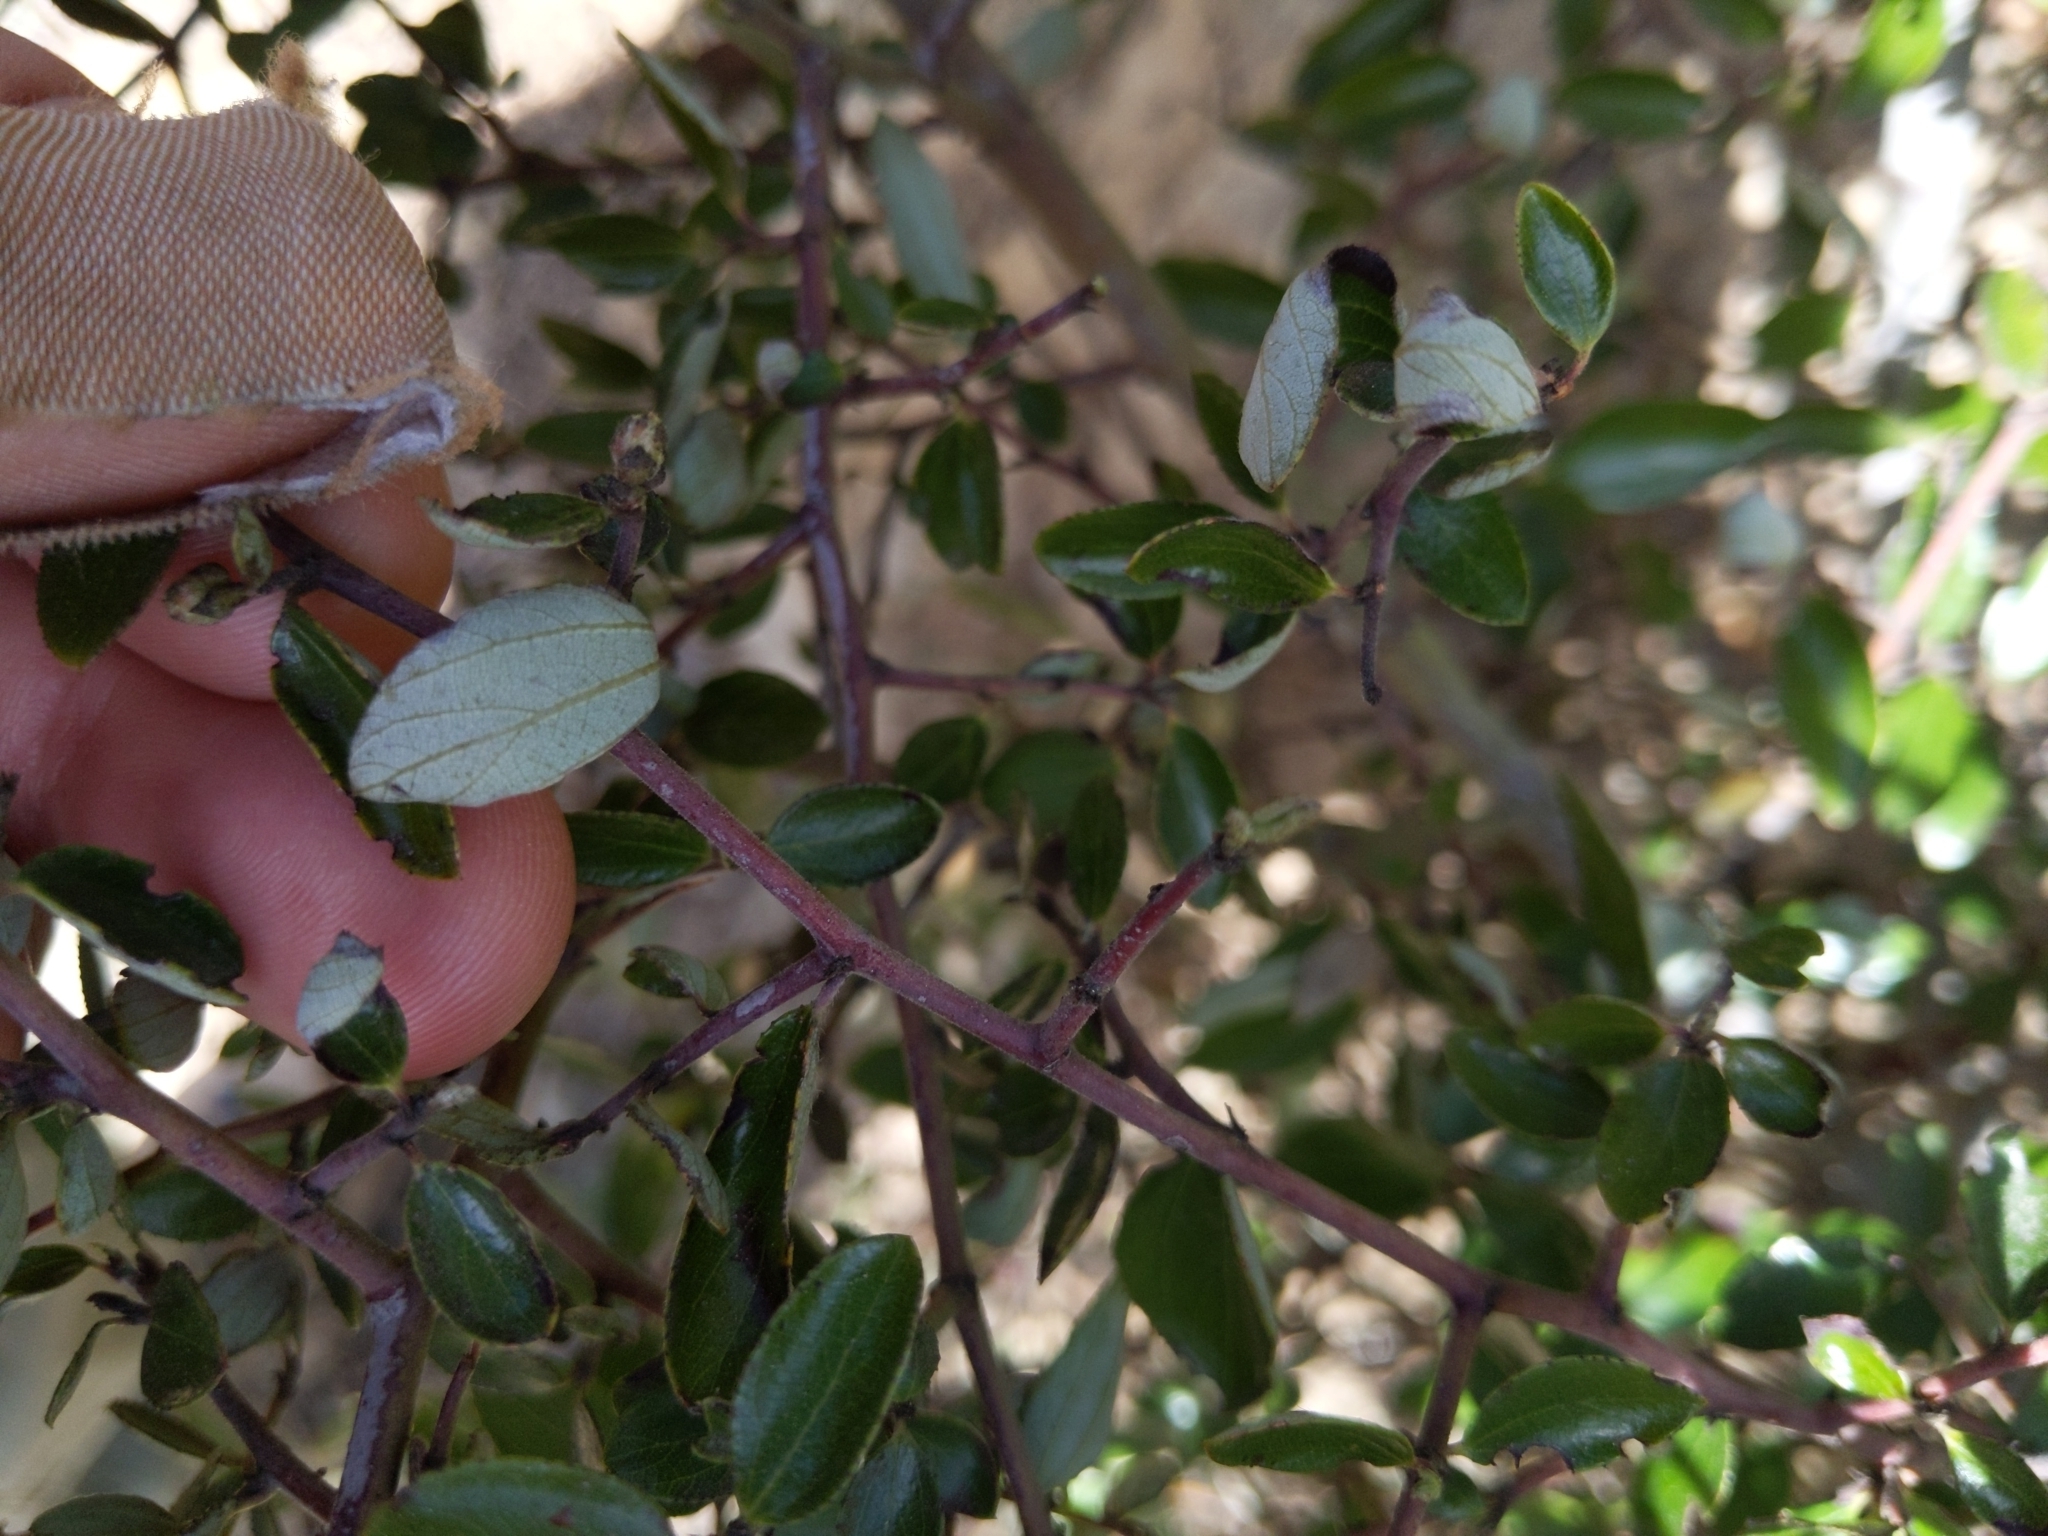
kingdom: Plantae
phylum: Tracheophyta
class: Magnoliopsida
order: Rosales
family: Rhamnaceae
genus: Ceanothus
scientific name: Ceanothus oliganthus
